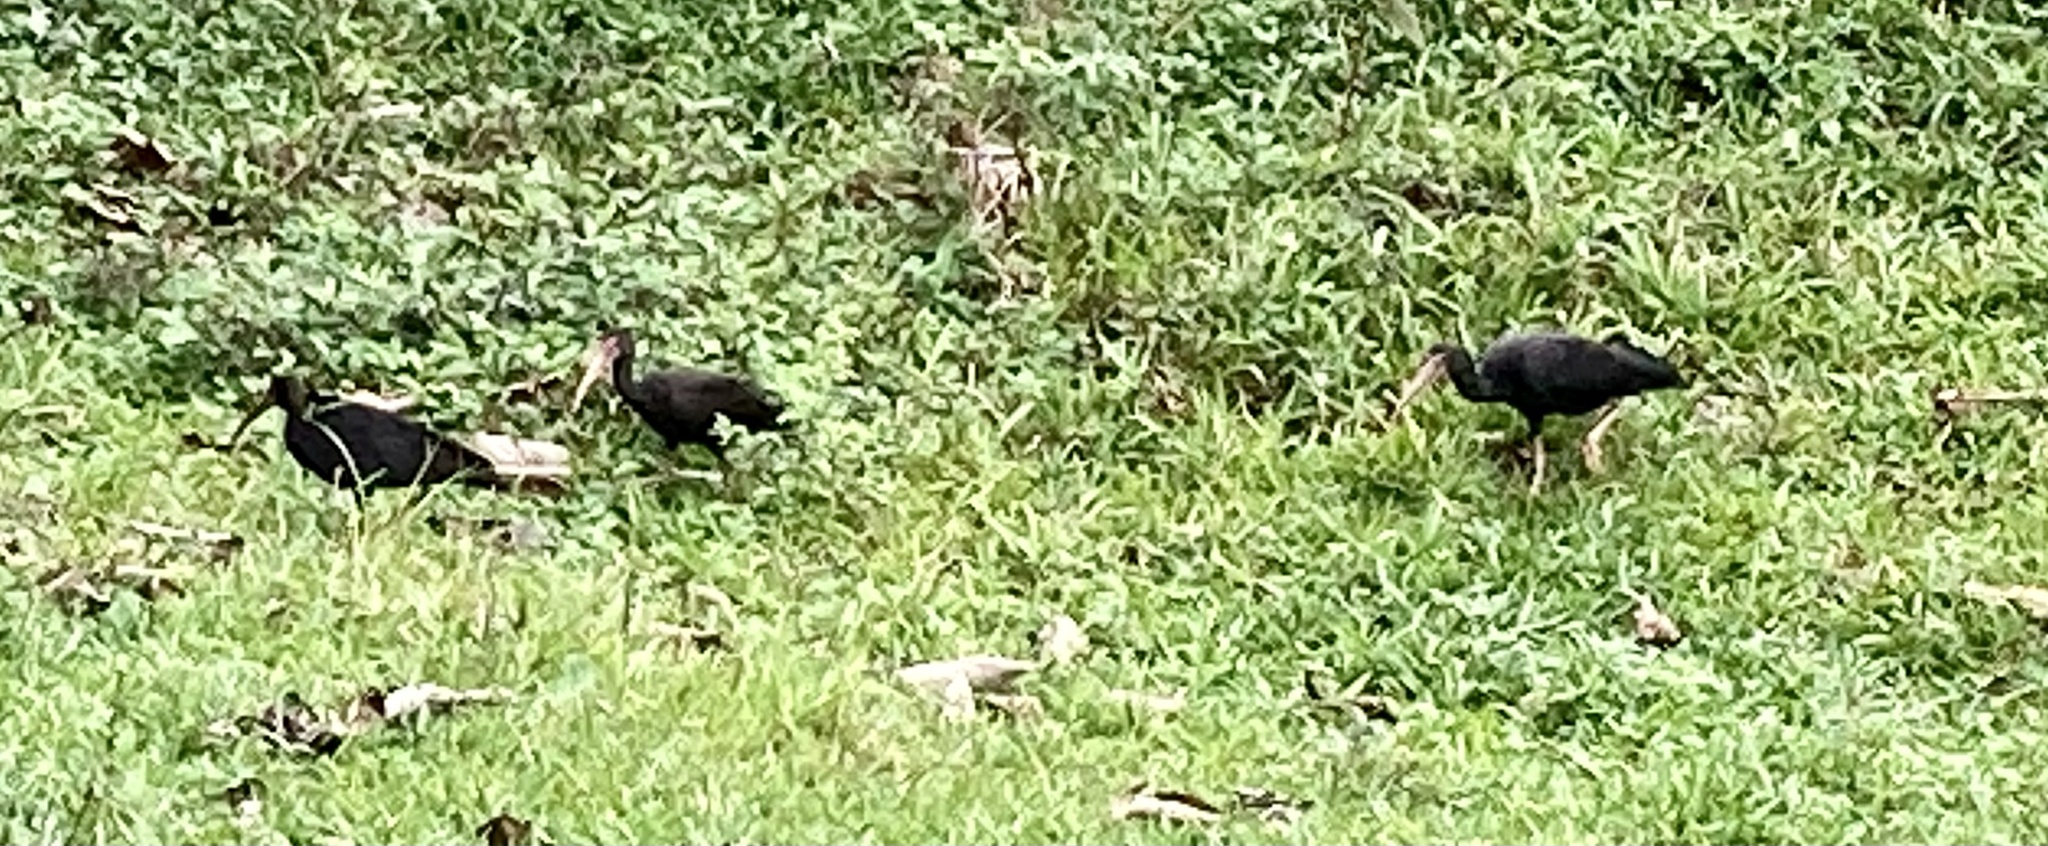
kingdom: Animalia
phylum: Chordata
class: Aves
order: Pelecaniformes
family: Threskiornithidae
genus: Phimosus
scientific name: Phimosus infuscatus
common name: Bare-faced ibis
